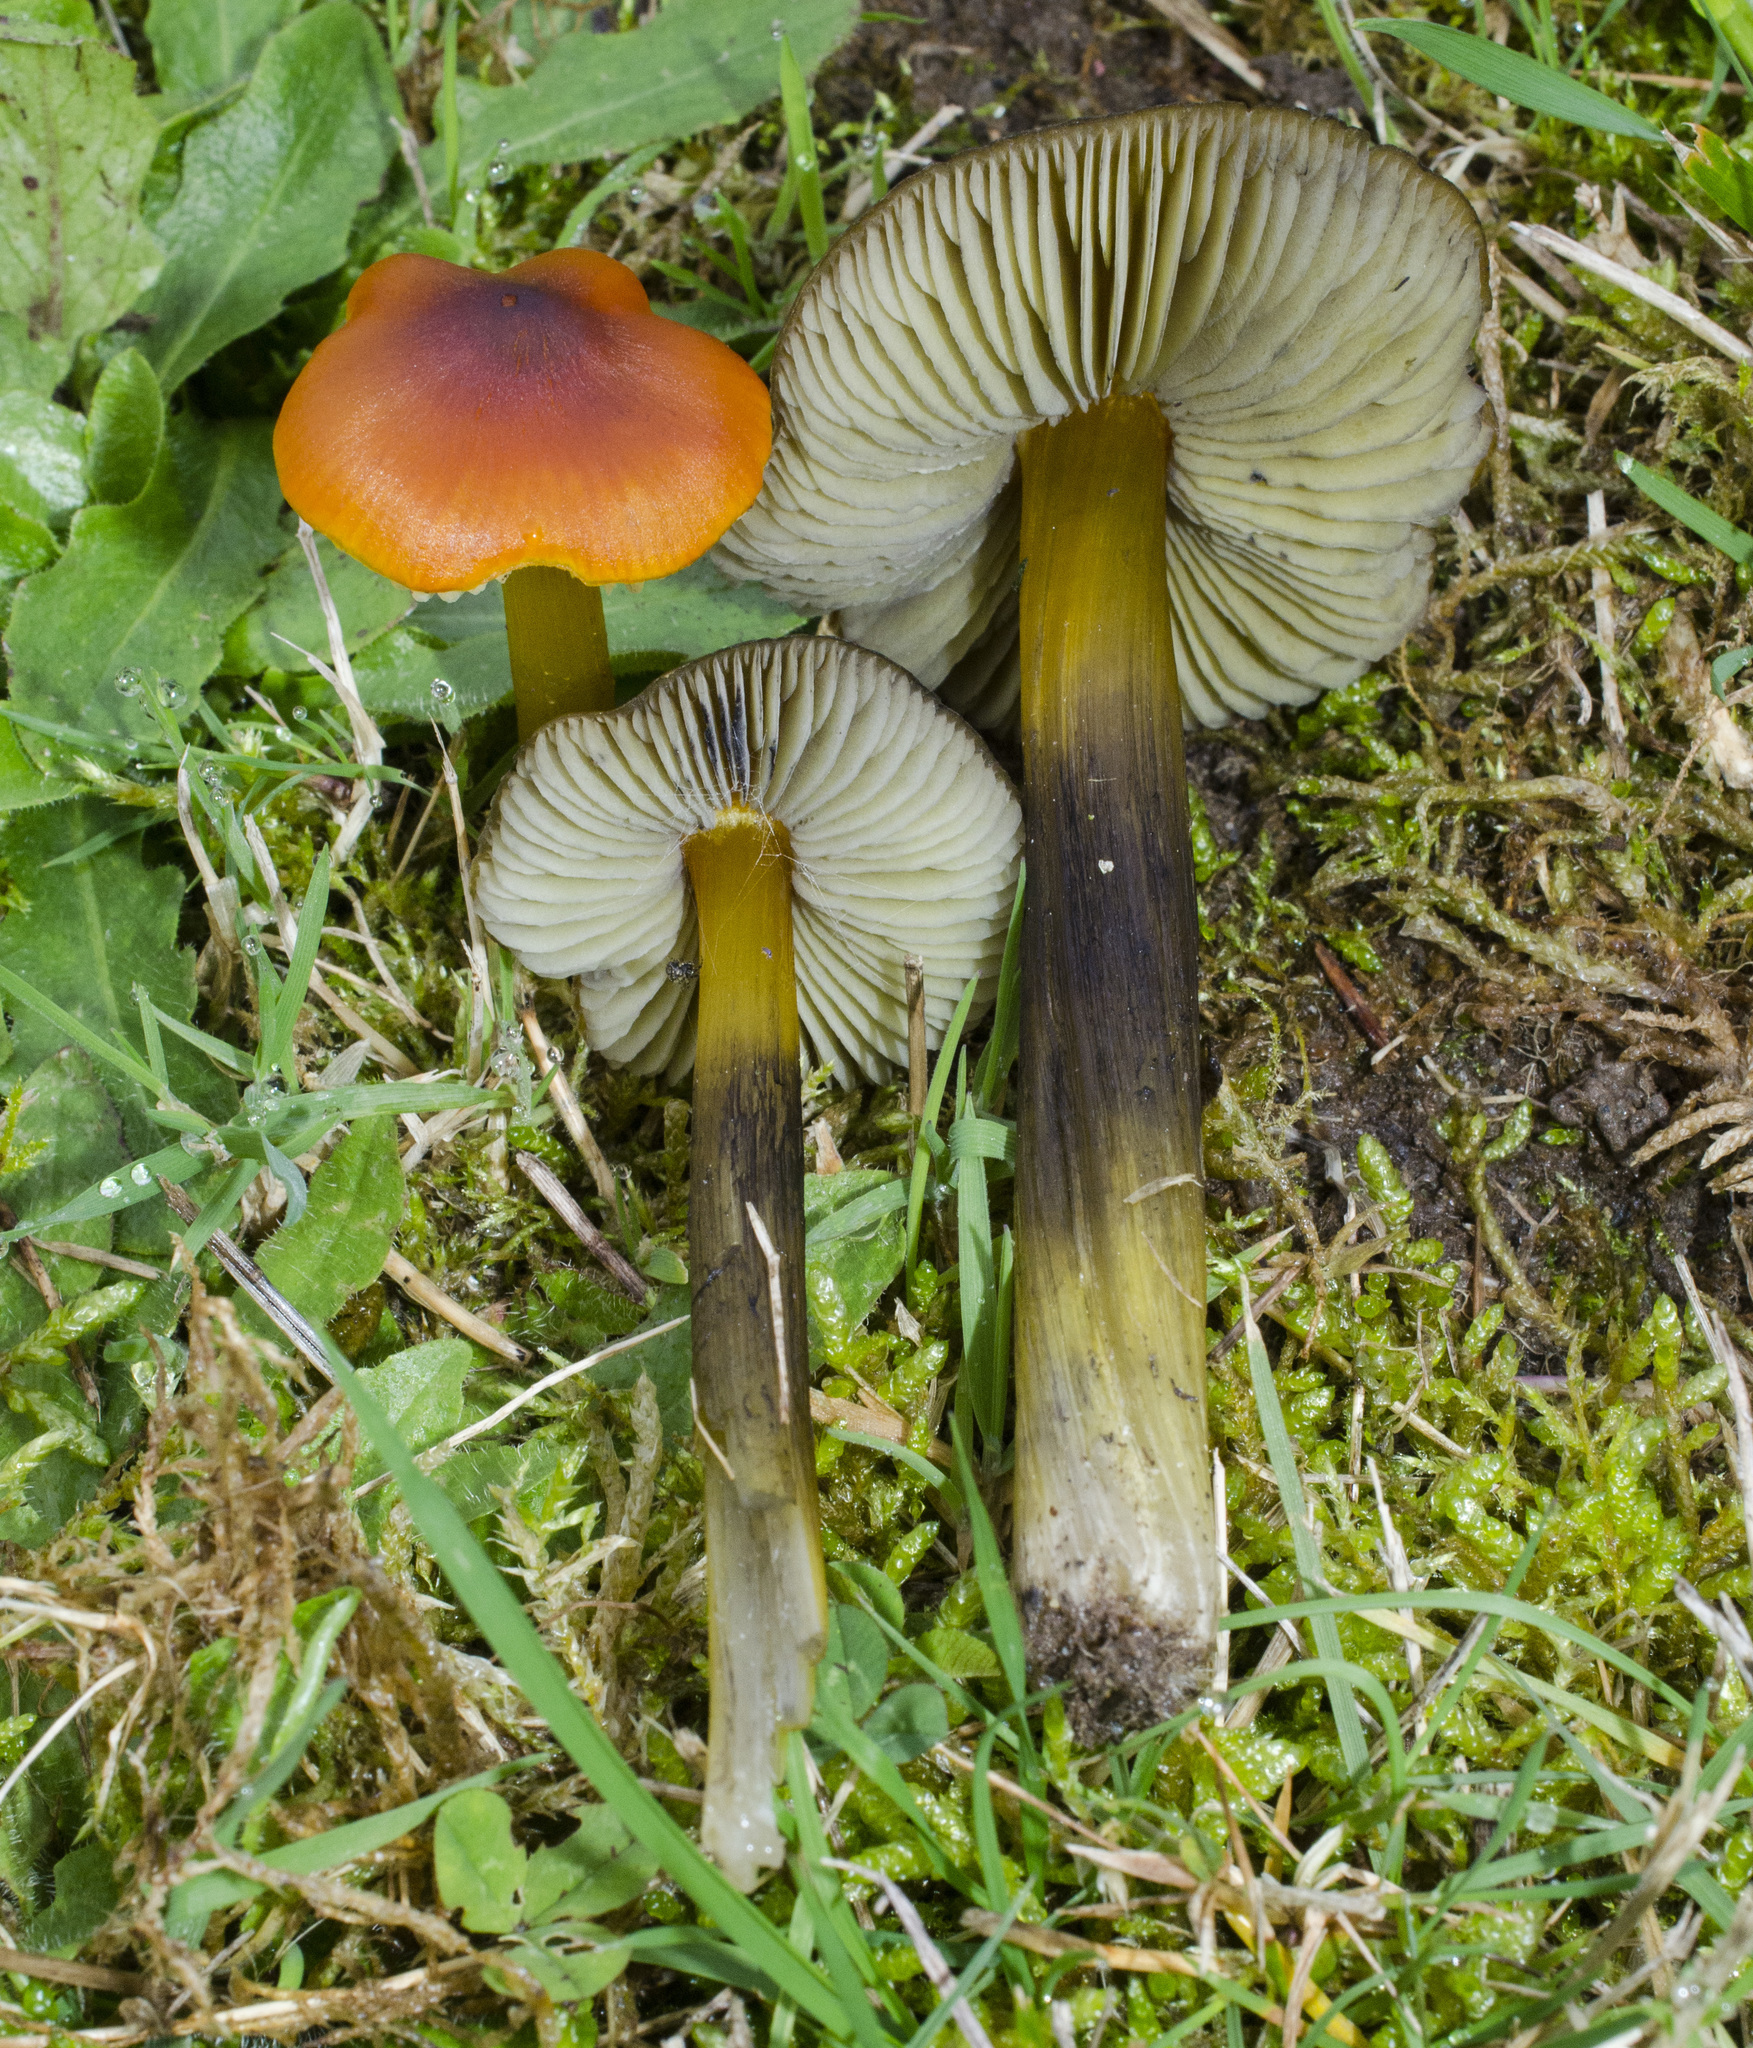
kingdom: Fungi
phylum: Basidiomycota
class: Agaricomycetes
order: Agaricales
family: Hygrophoraceae
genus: Hygrocybe
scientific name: Hygrocybe singeri
